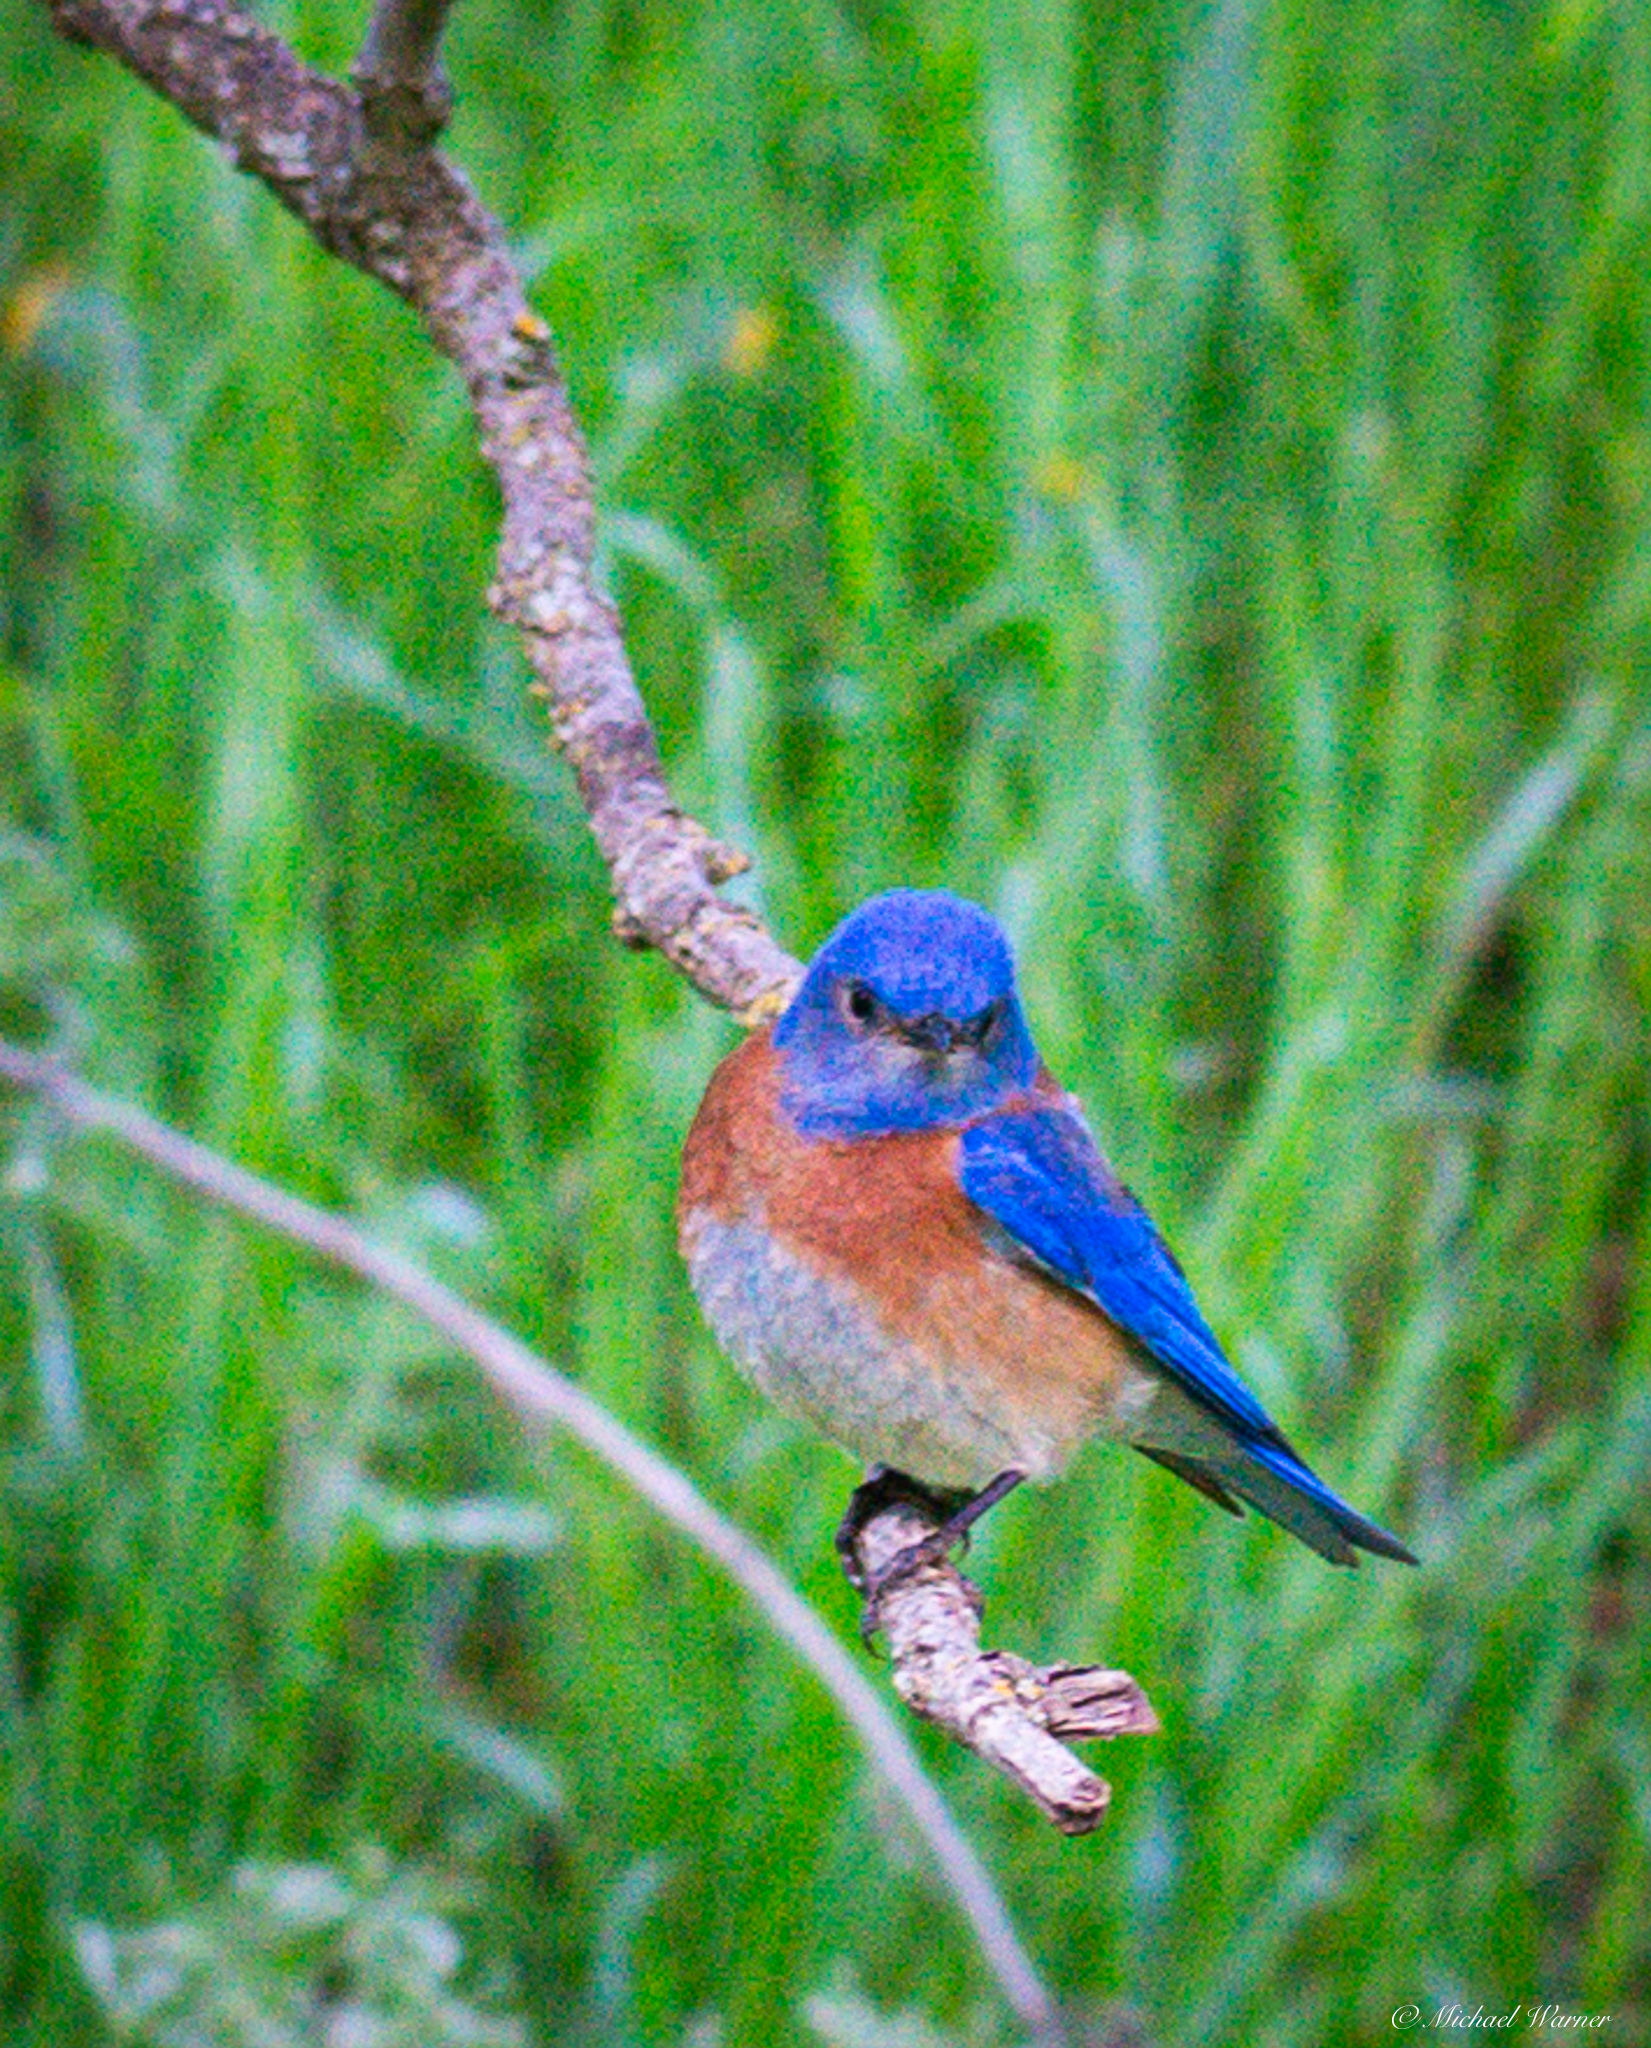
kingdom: Animalia
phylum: Chordata
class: Aves
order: Passeriformes
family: Turdidae
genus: Sialia
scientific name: Sialia mexicana
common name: Western bluebird
